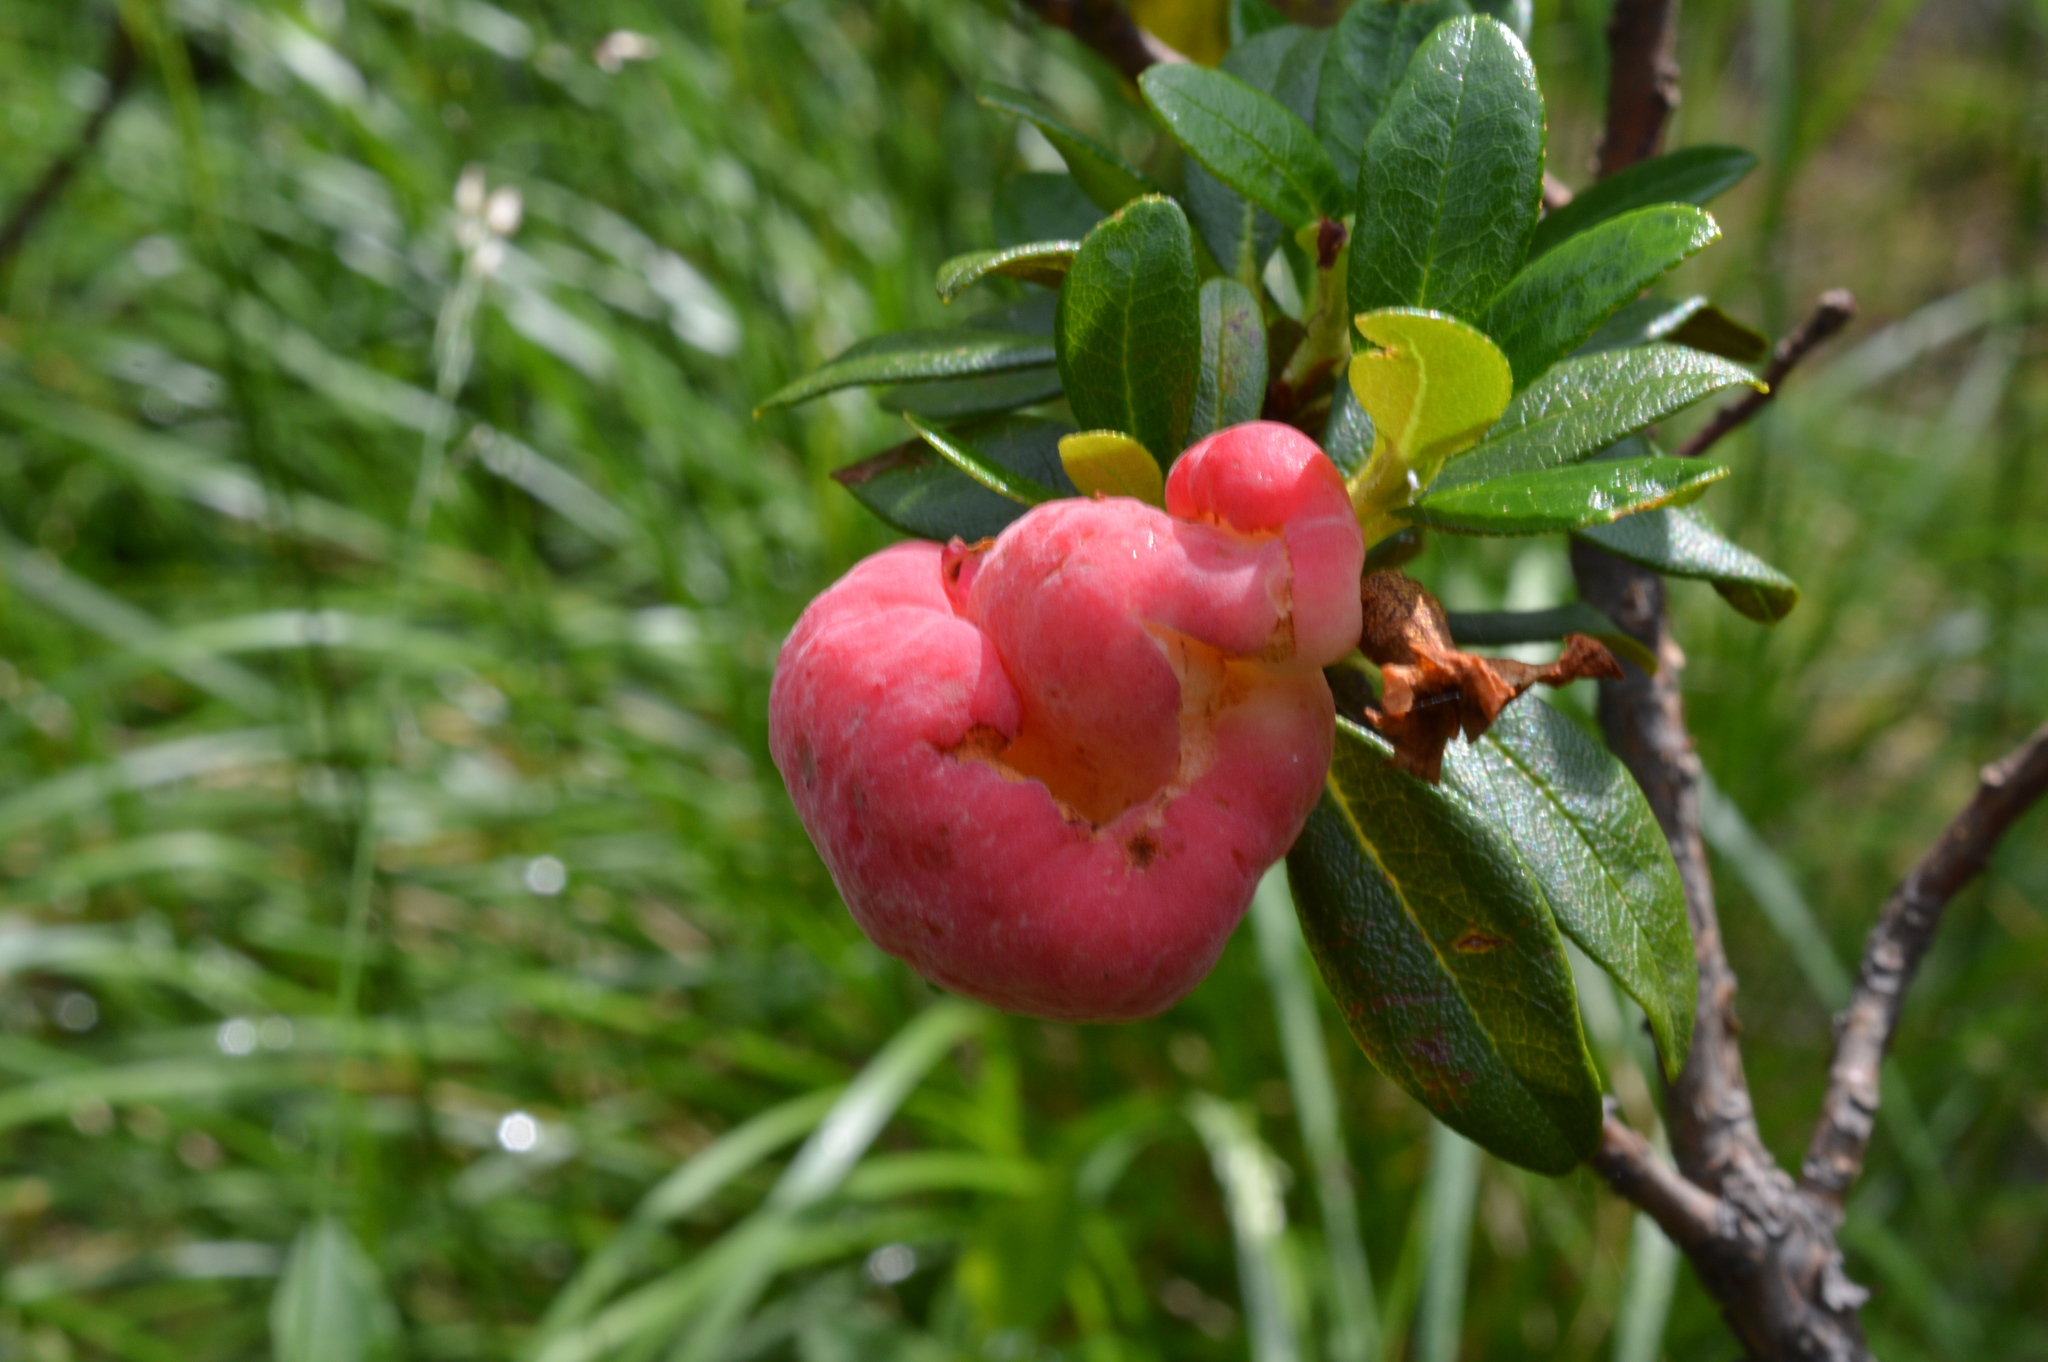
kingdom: Fungi
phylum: Basidiomycota
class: Exobasidiomycetes
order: Exobasidiales
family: Exobasidiaceae
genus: Exobasidium
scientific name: Exobasidium rhododendri
